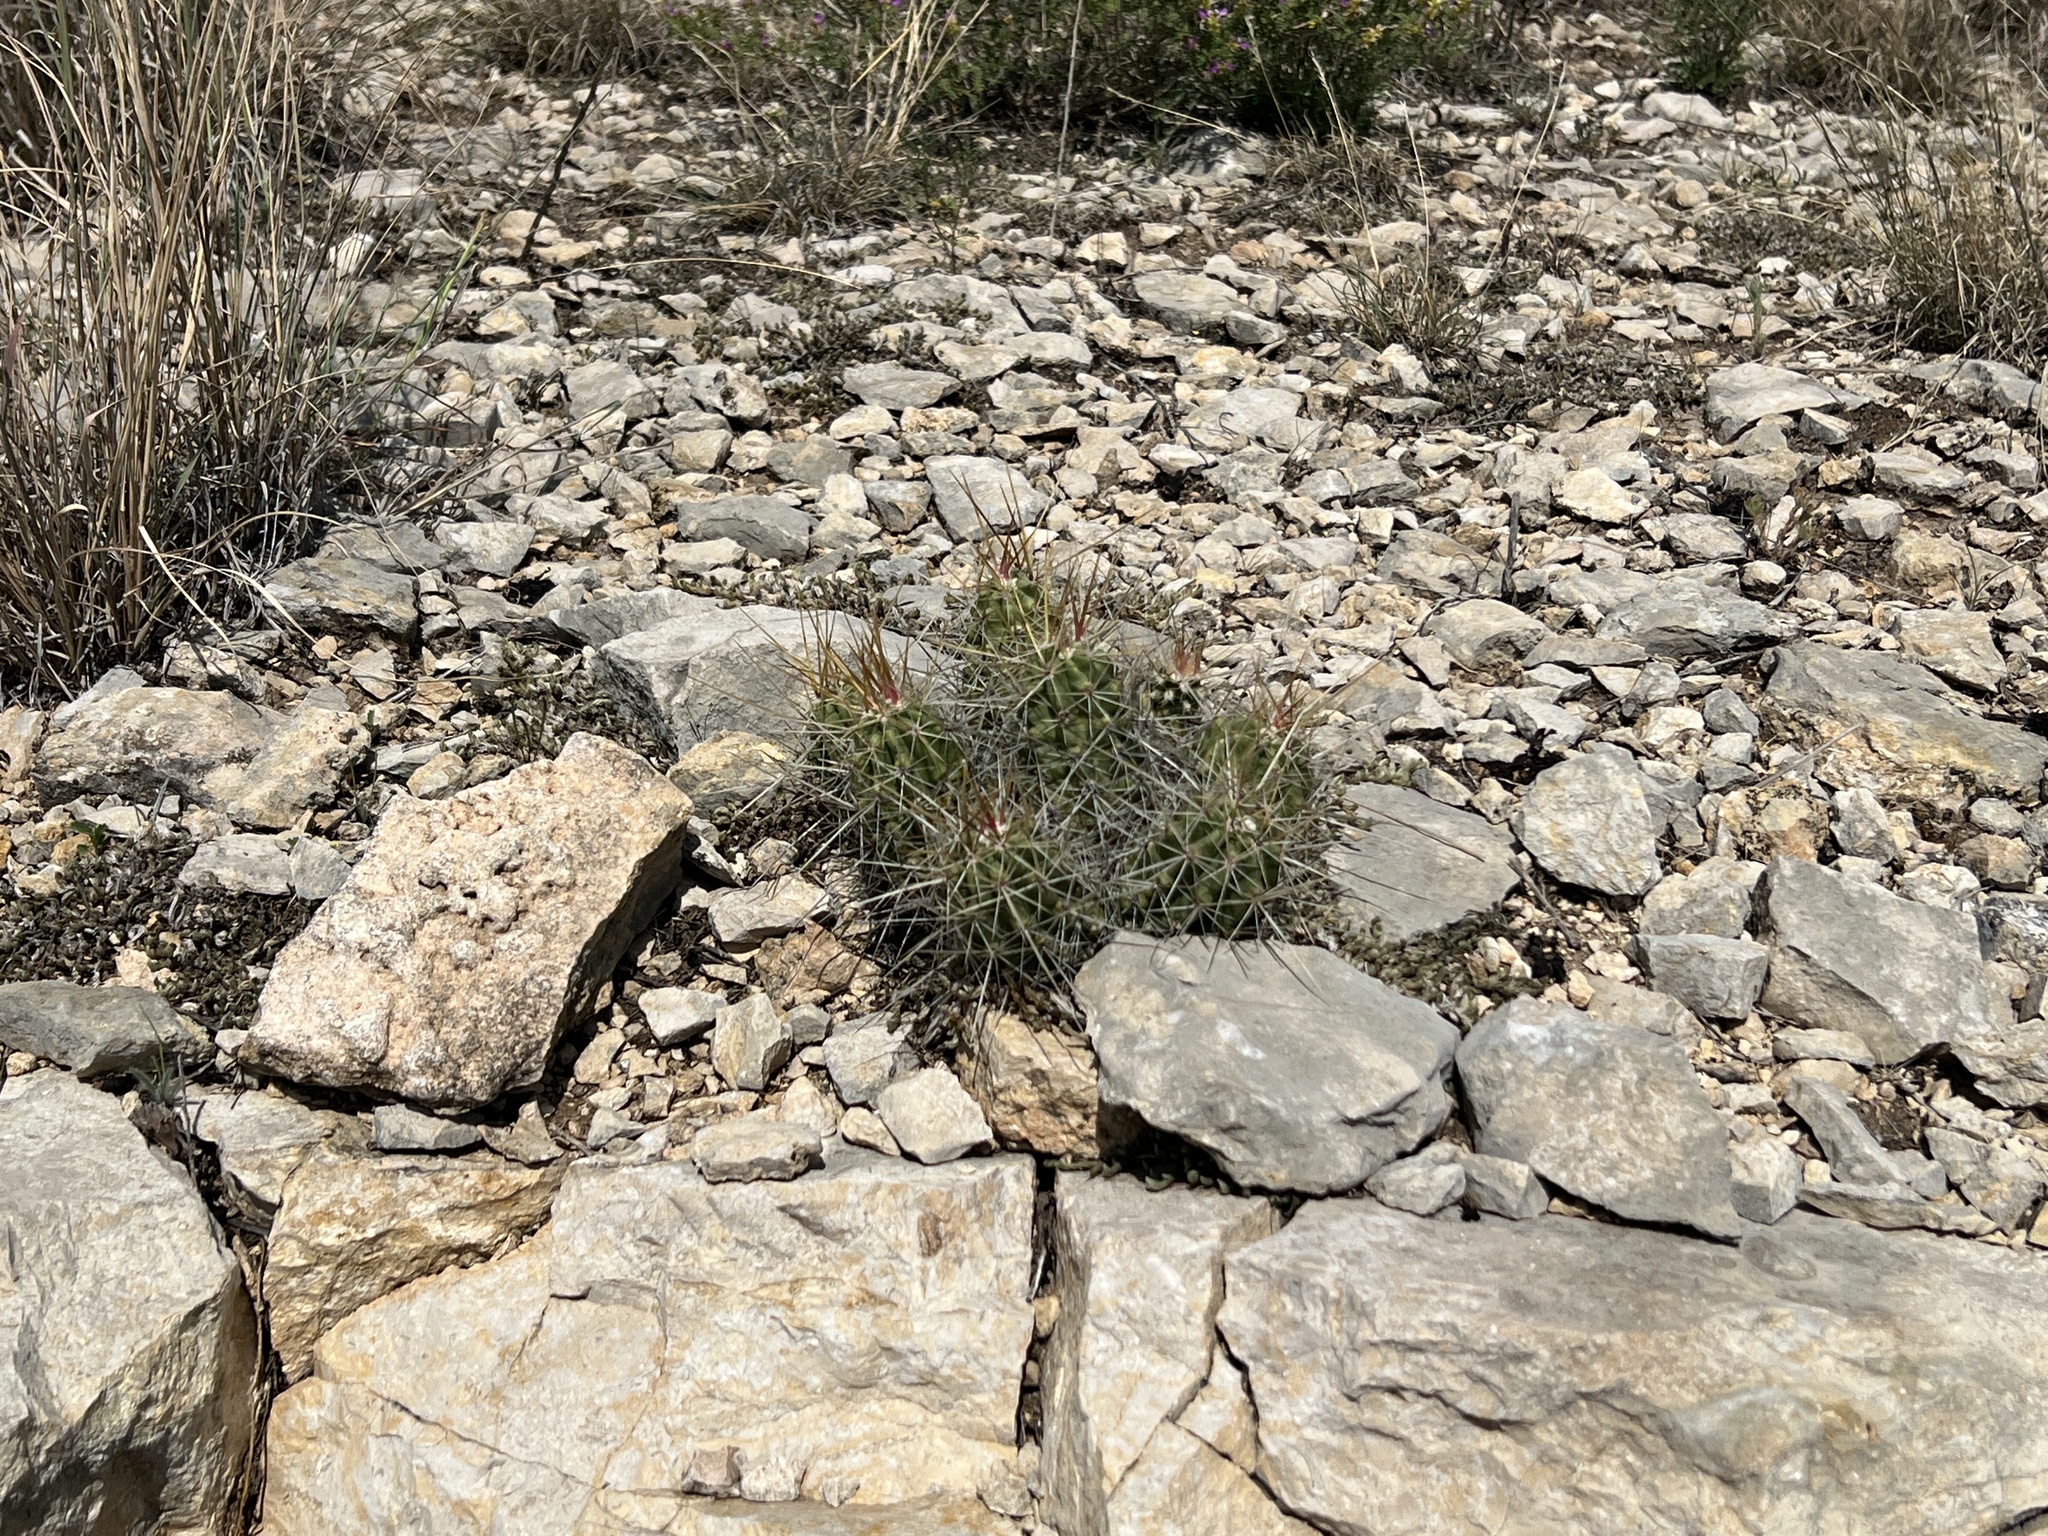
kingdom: Plantae
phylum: Tracheophyta
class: Magnoliopsida
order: Caryophyllales
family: Cactaceae
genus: Echinocereus
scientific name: Echinocereus enneacanthus
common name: Pitaya
